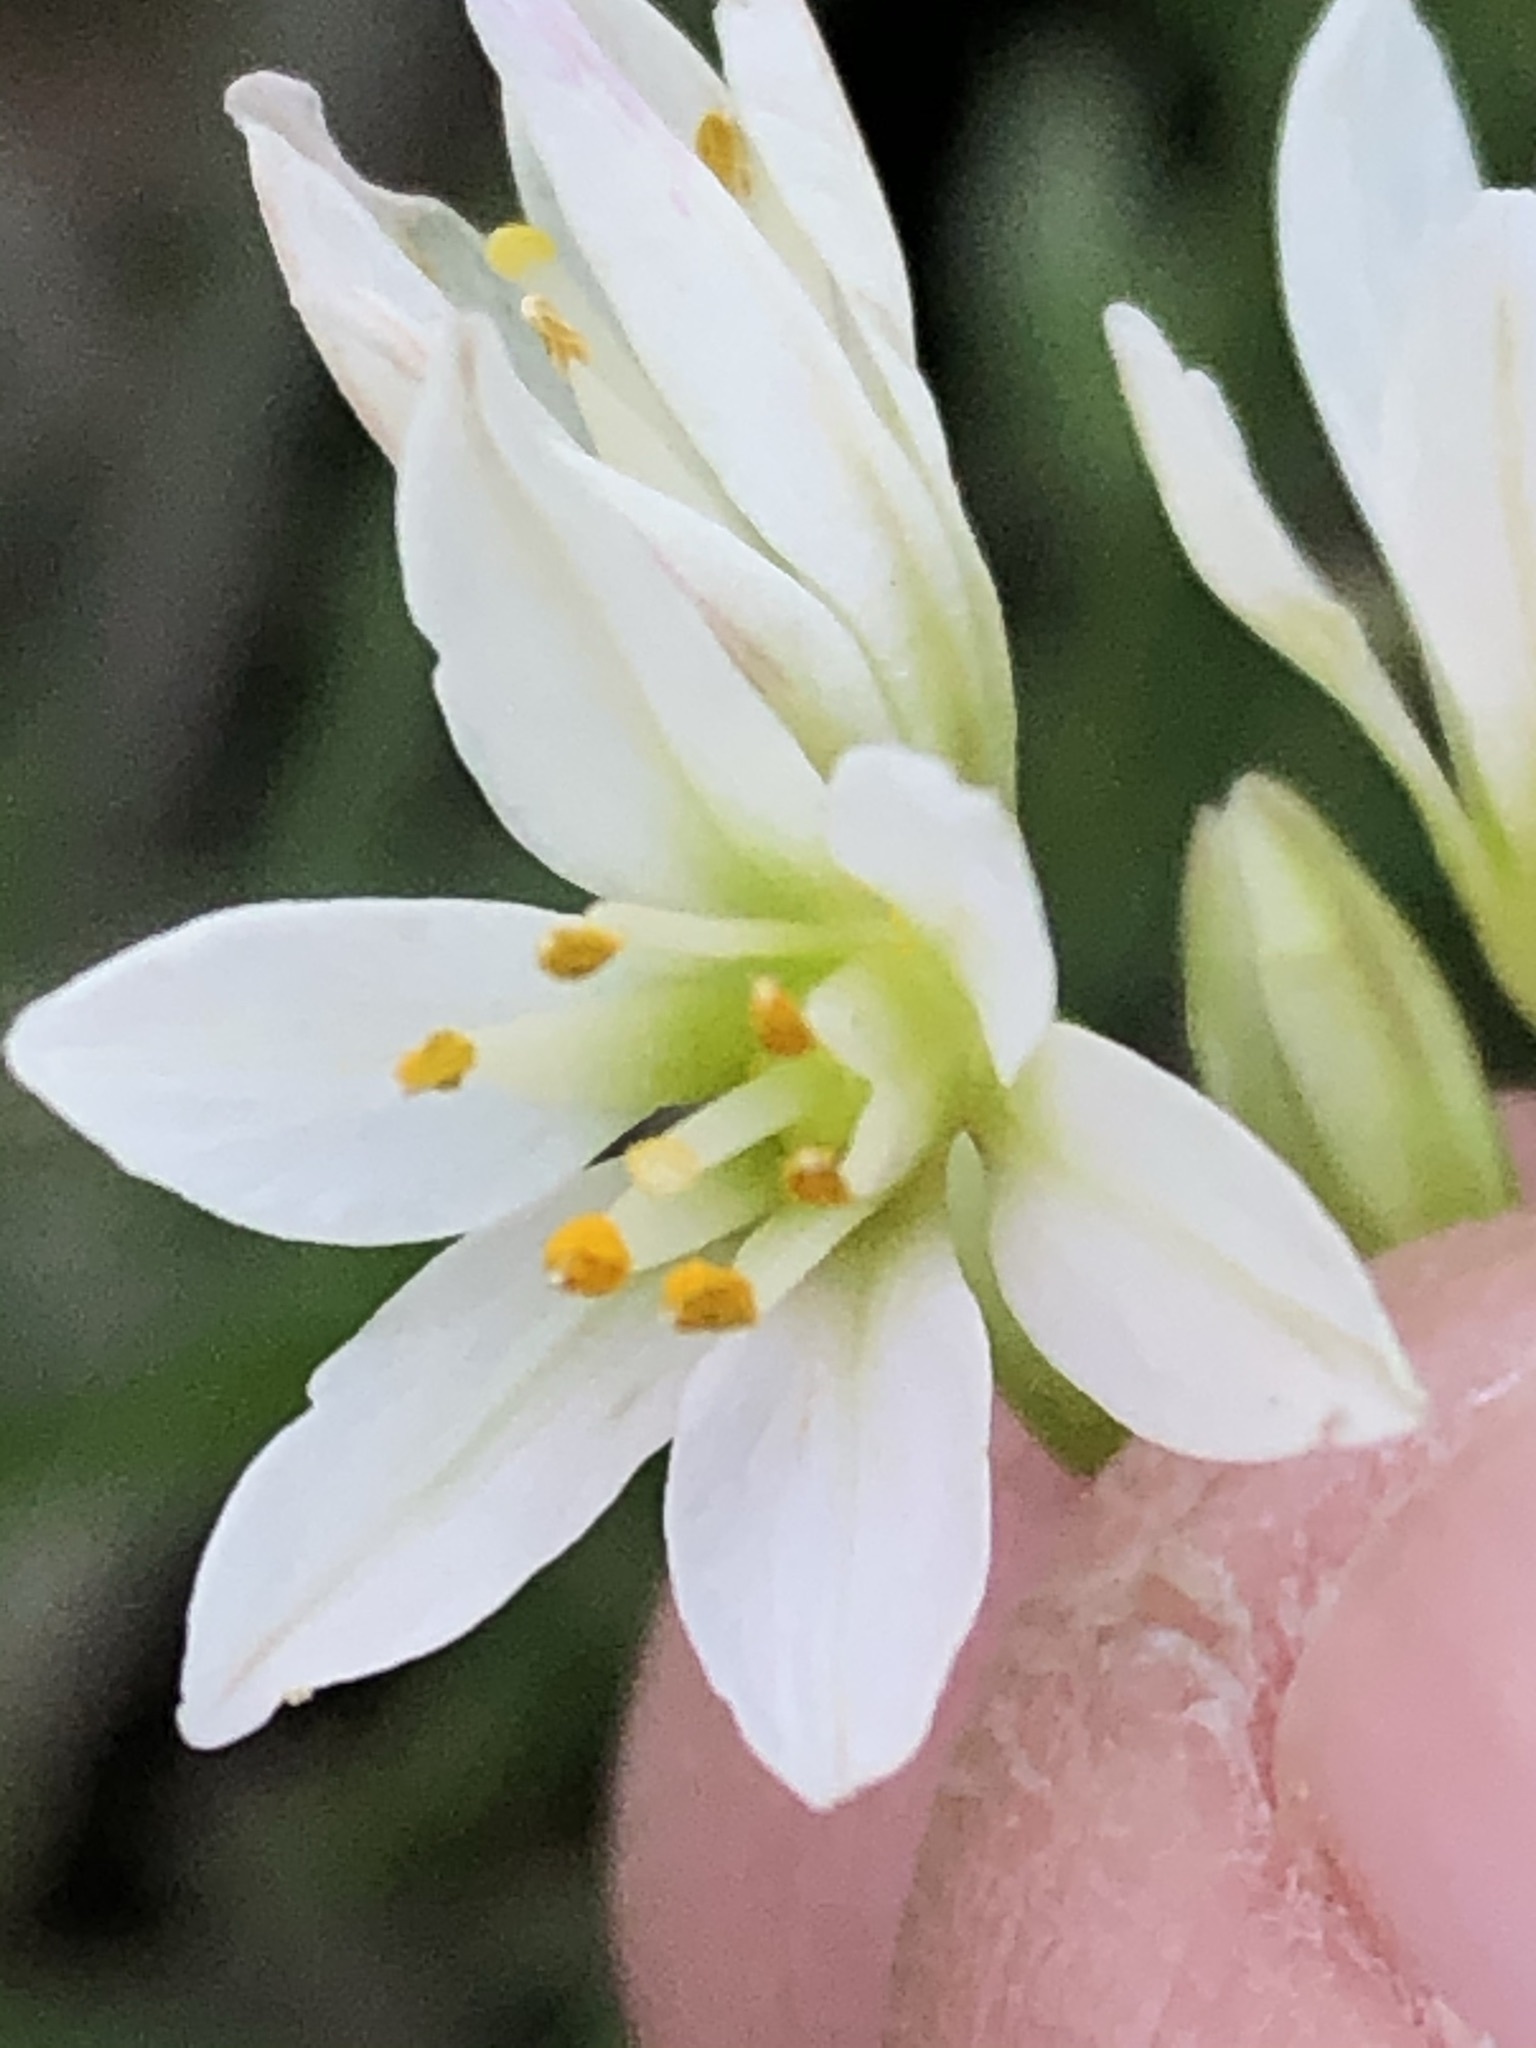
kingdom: Plantae
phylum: Tracheophyta
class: Liliopsida
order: Asparagales
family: Amaryllidaceae
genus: Nothoscordum
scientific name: Nothoscordum bivalve
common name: Crow-poison
